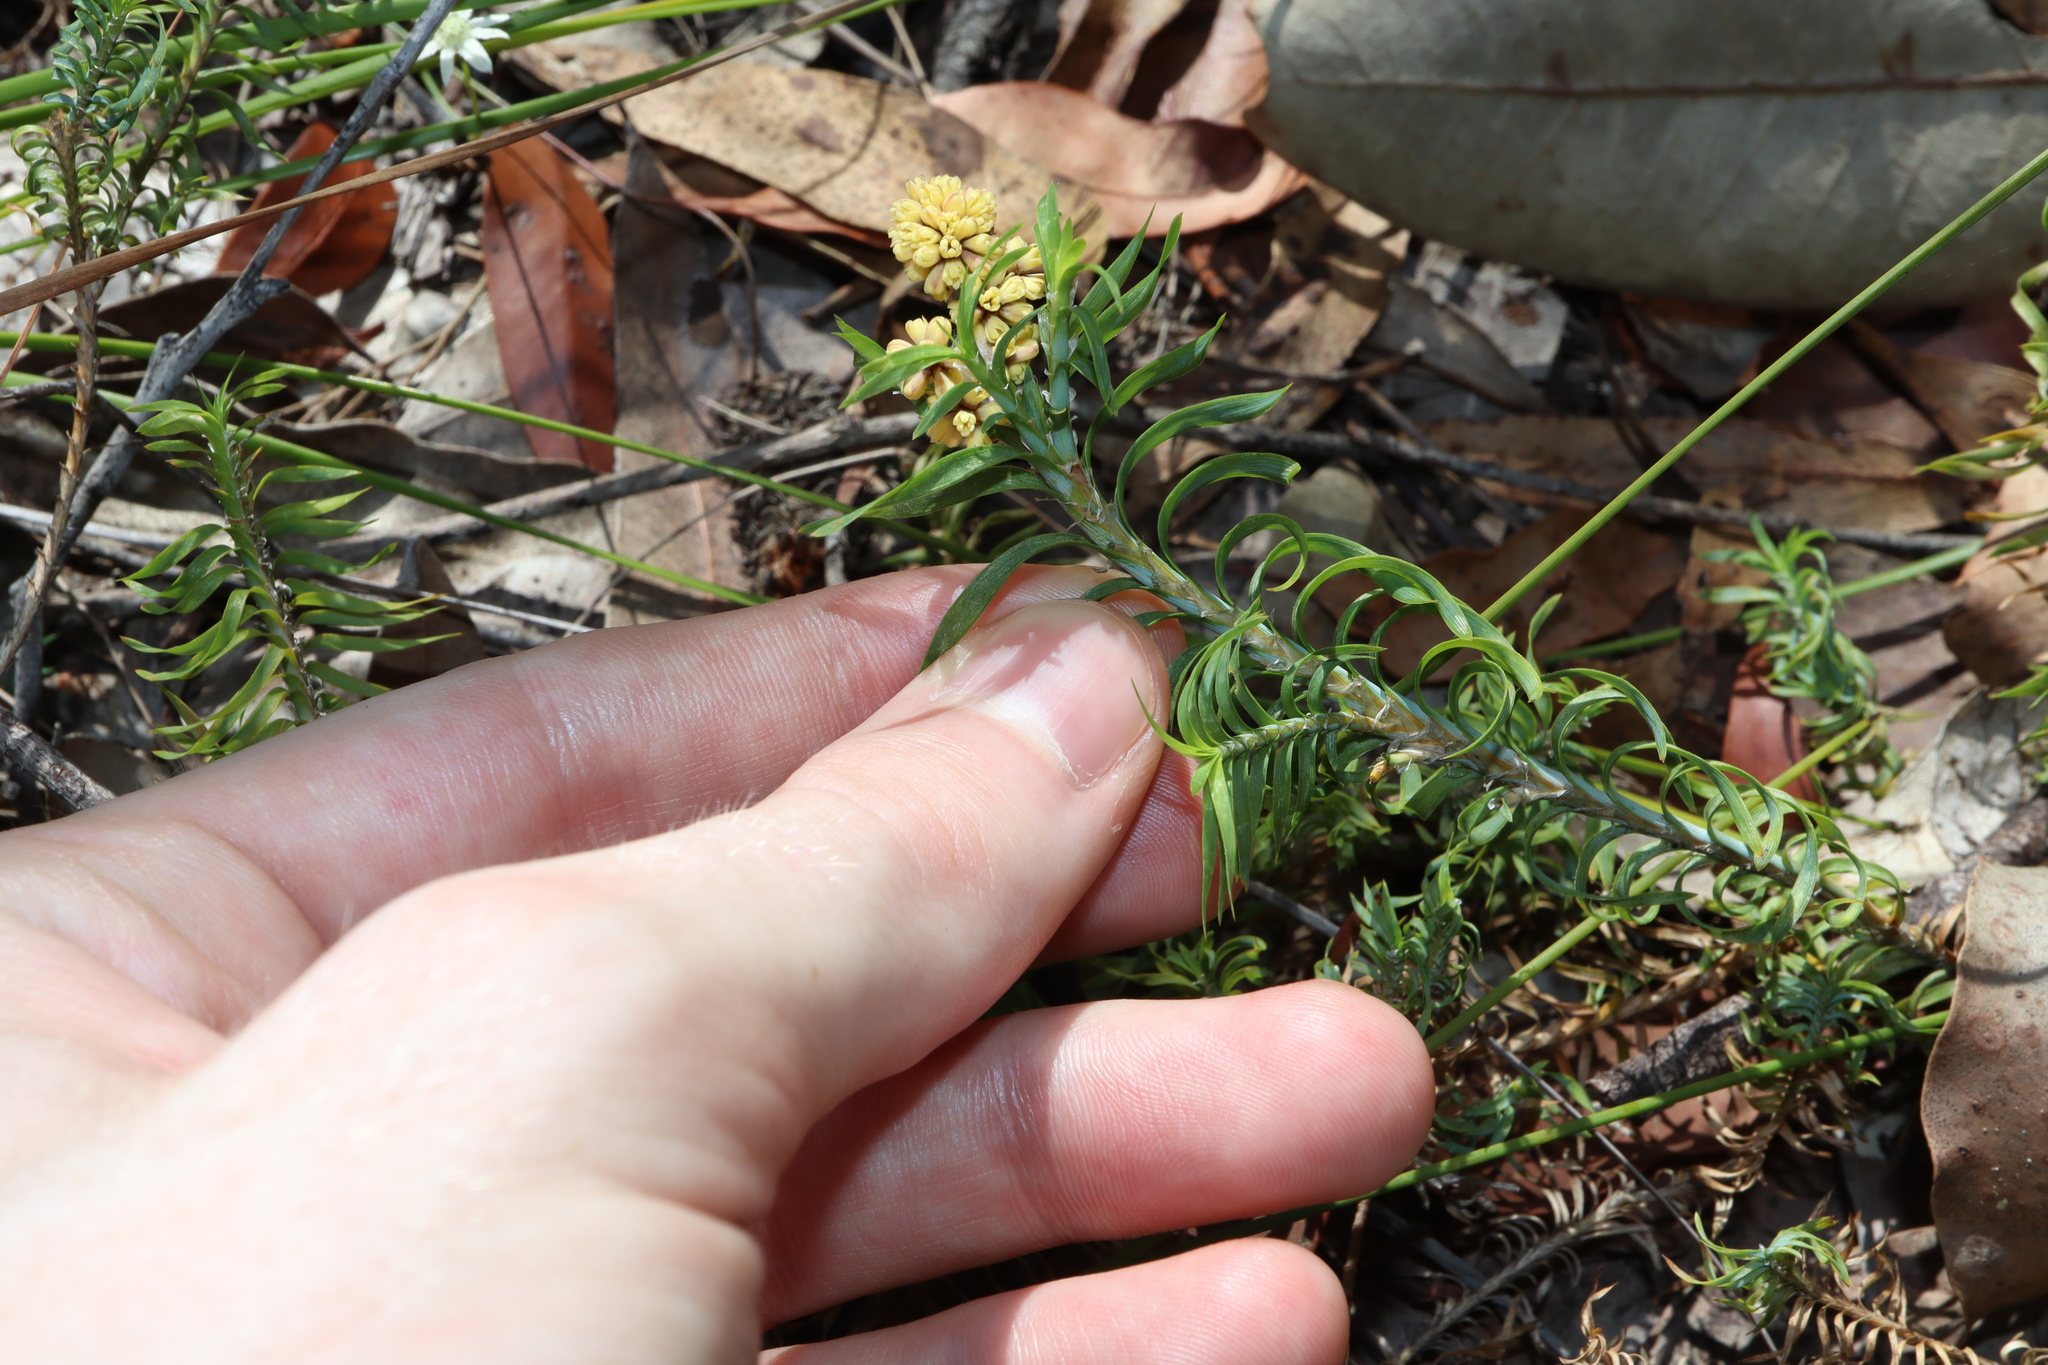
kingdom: Plantae
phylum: Tracheophyta
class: Liliopsida
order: Asparagales
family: Asparagaceae
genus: Lomandra
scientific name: Lomandra obliqua
